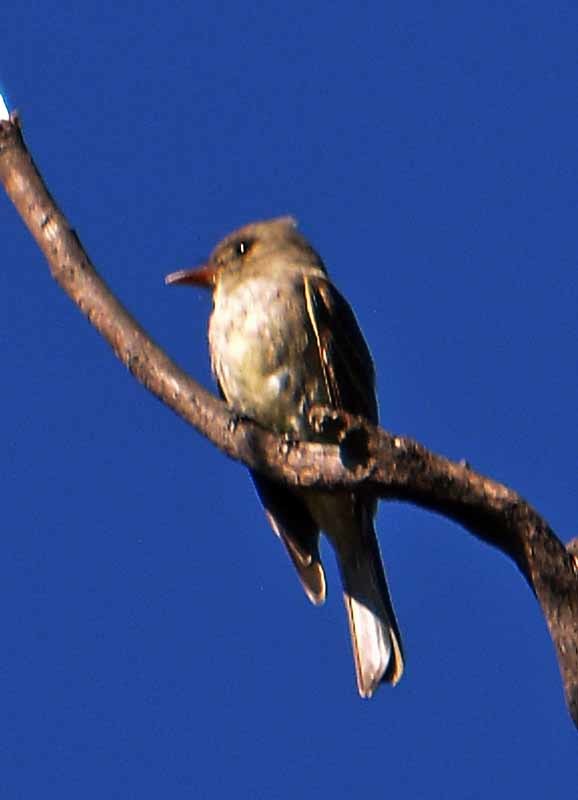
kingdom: Animalia
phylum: Chordata
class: Aves
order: Passeriformes
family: Tyrannidae
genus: Contopus
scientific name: Contopus pertinax
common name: Greater pewee
